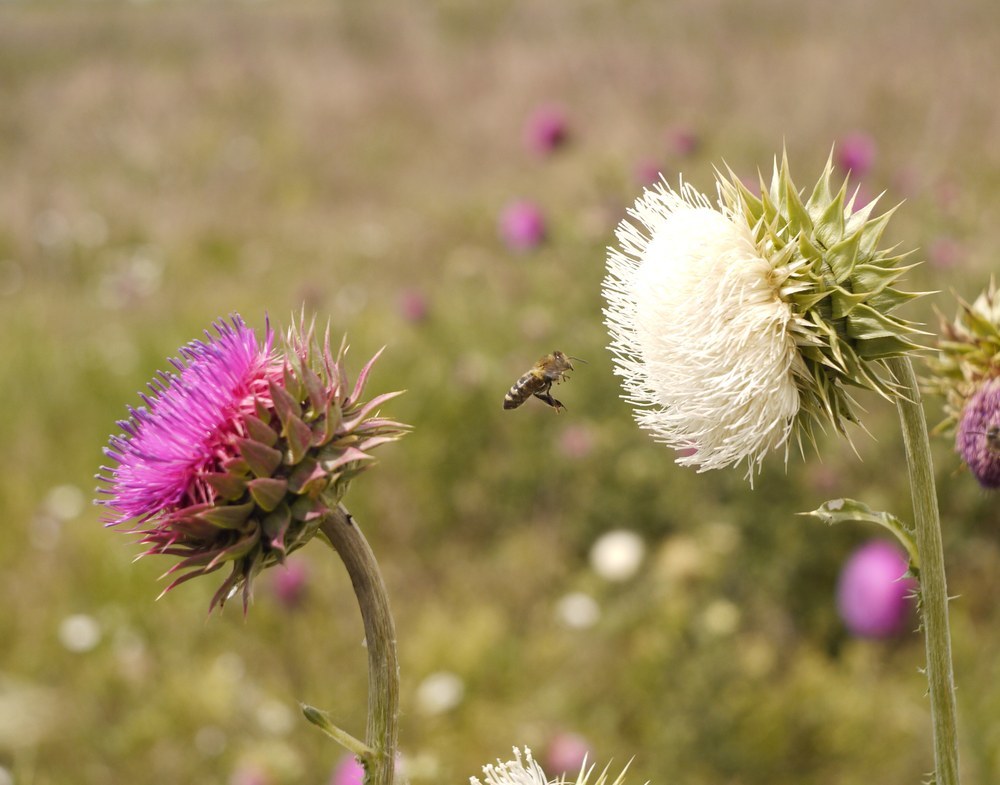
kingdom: Plantae
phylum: Tracheophyta
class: Magnoliopsida
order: Asterales
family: Asteraceae
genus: Carduus
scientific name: Carduus nutans
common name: Musk thistle
